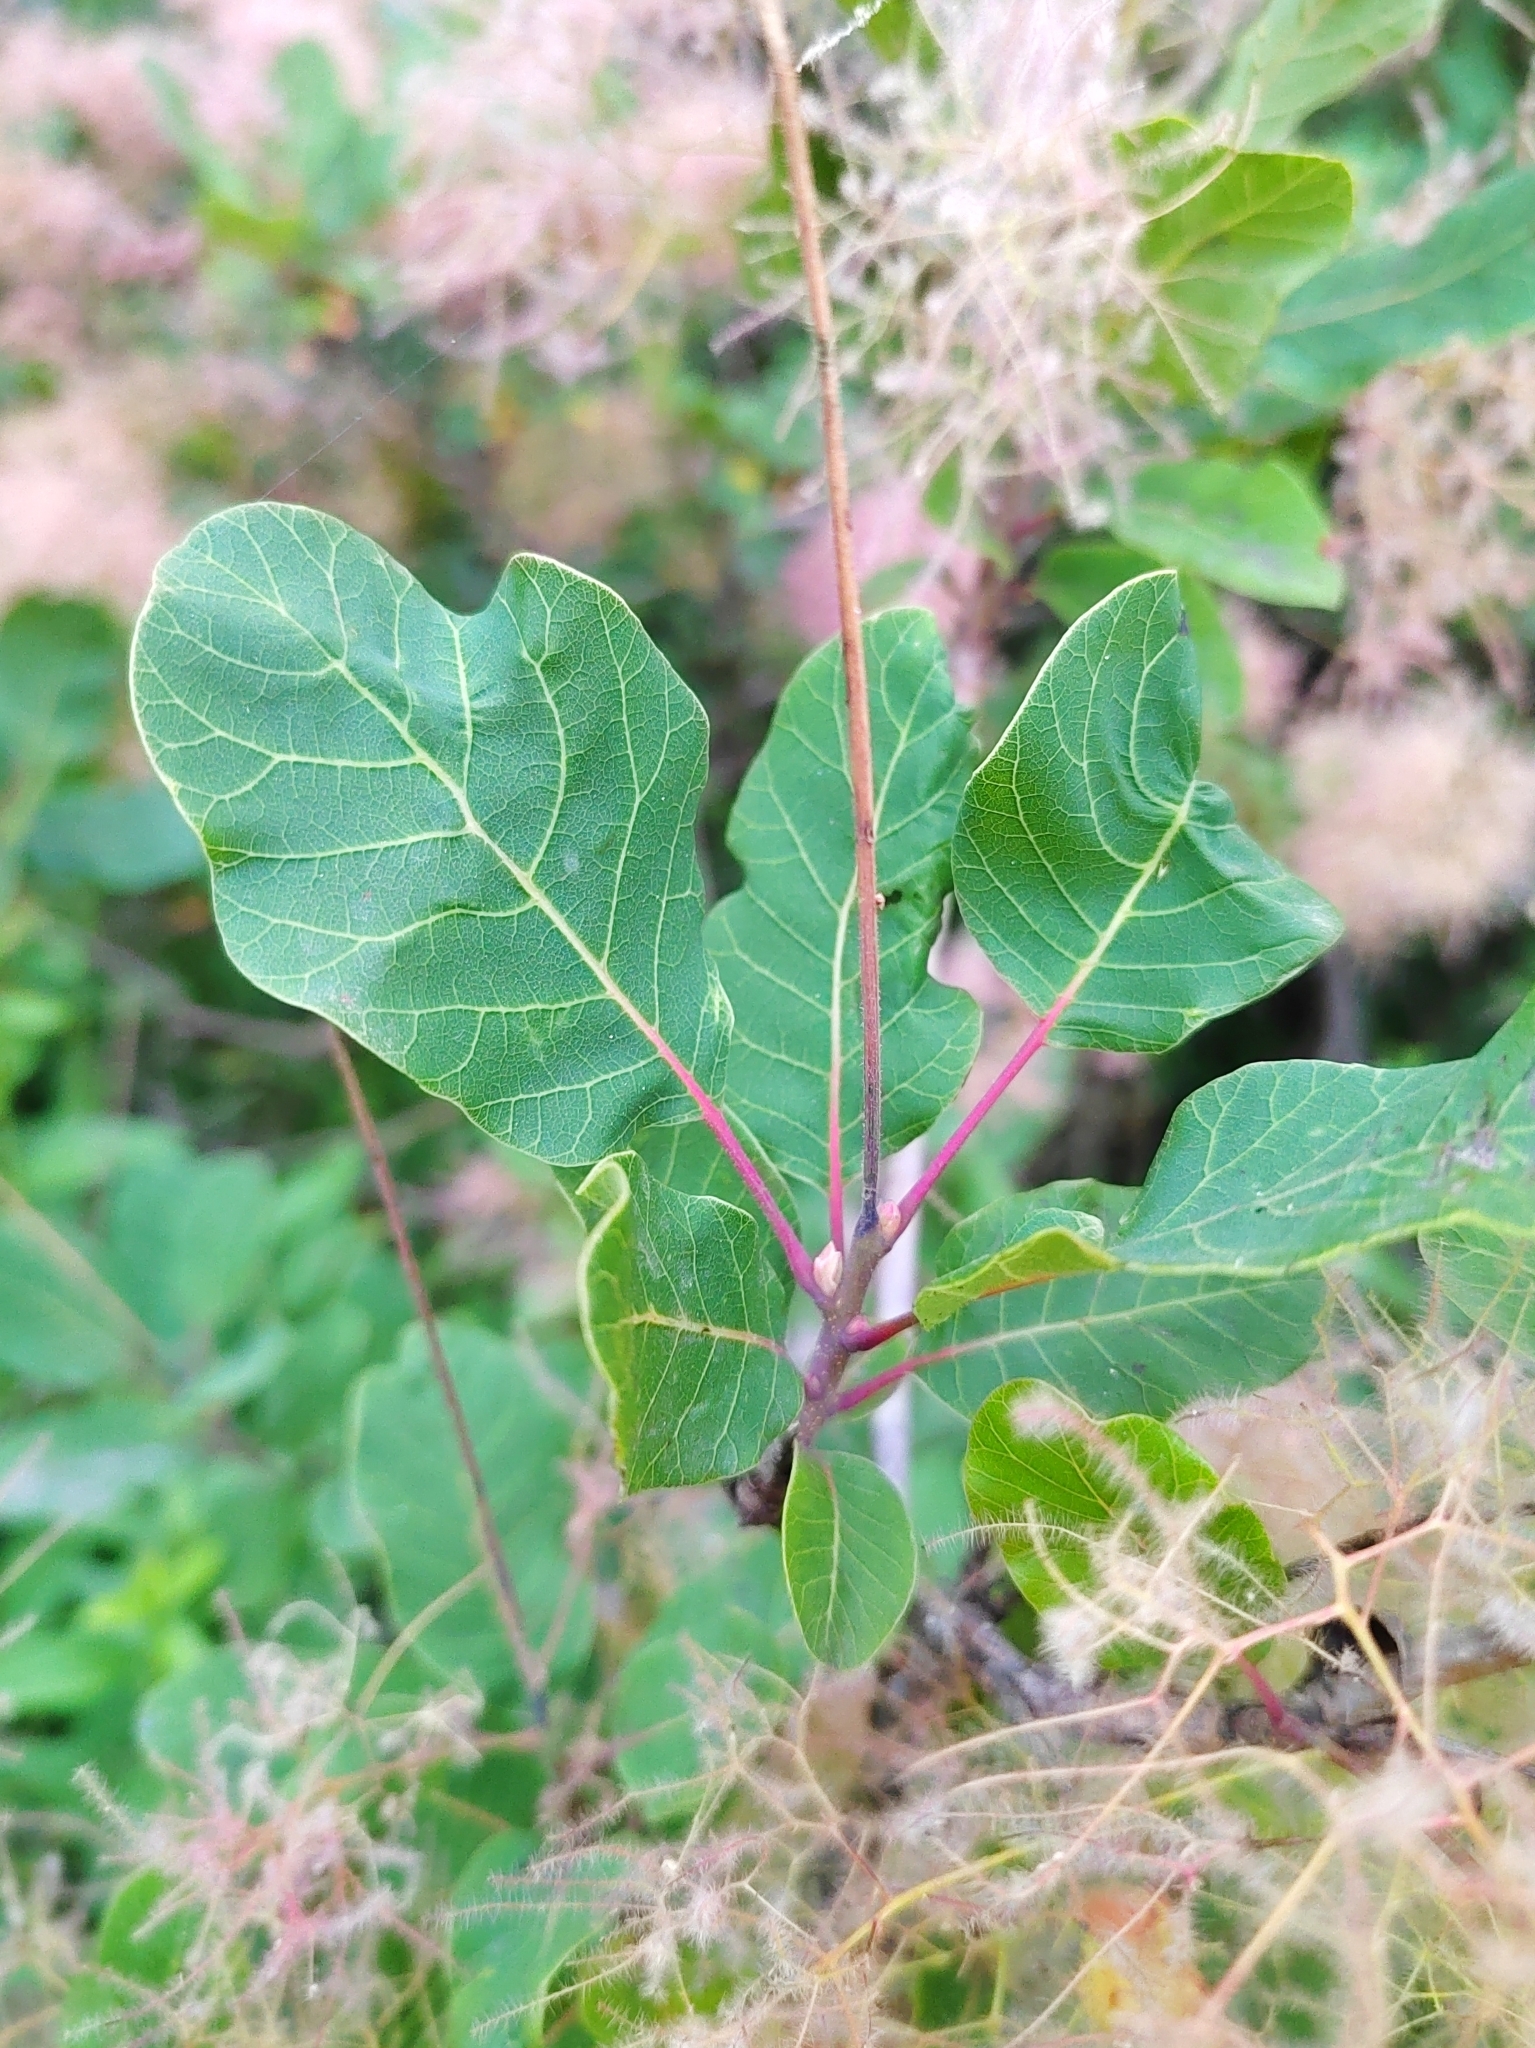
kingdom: Plantae
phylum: Tracheophyta
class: Magnoliopsida
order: Sapindales
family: Anacardiaceae
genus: Cotinus
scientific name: Cotinus coggygria
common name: Smoke-tree
